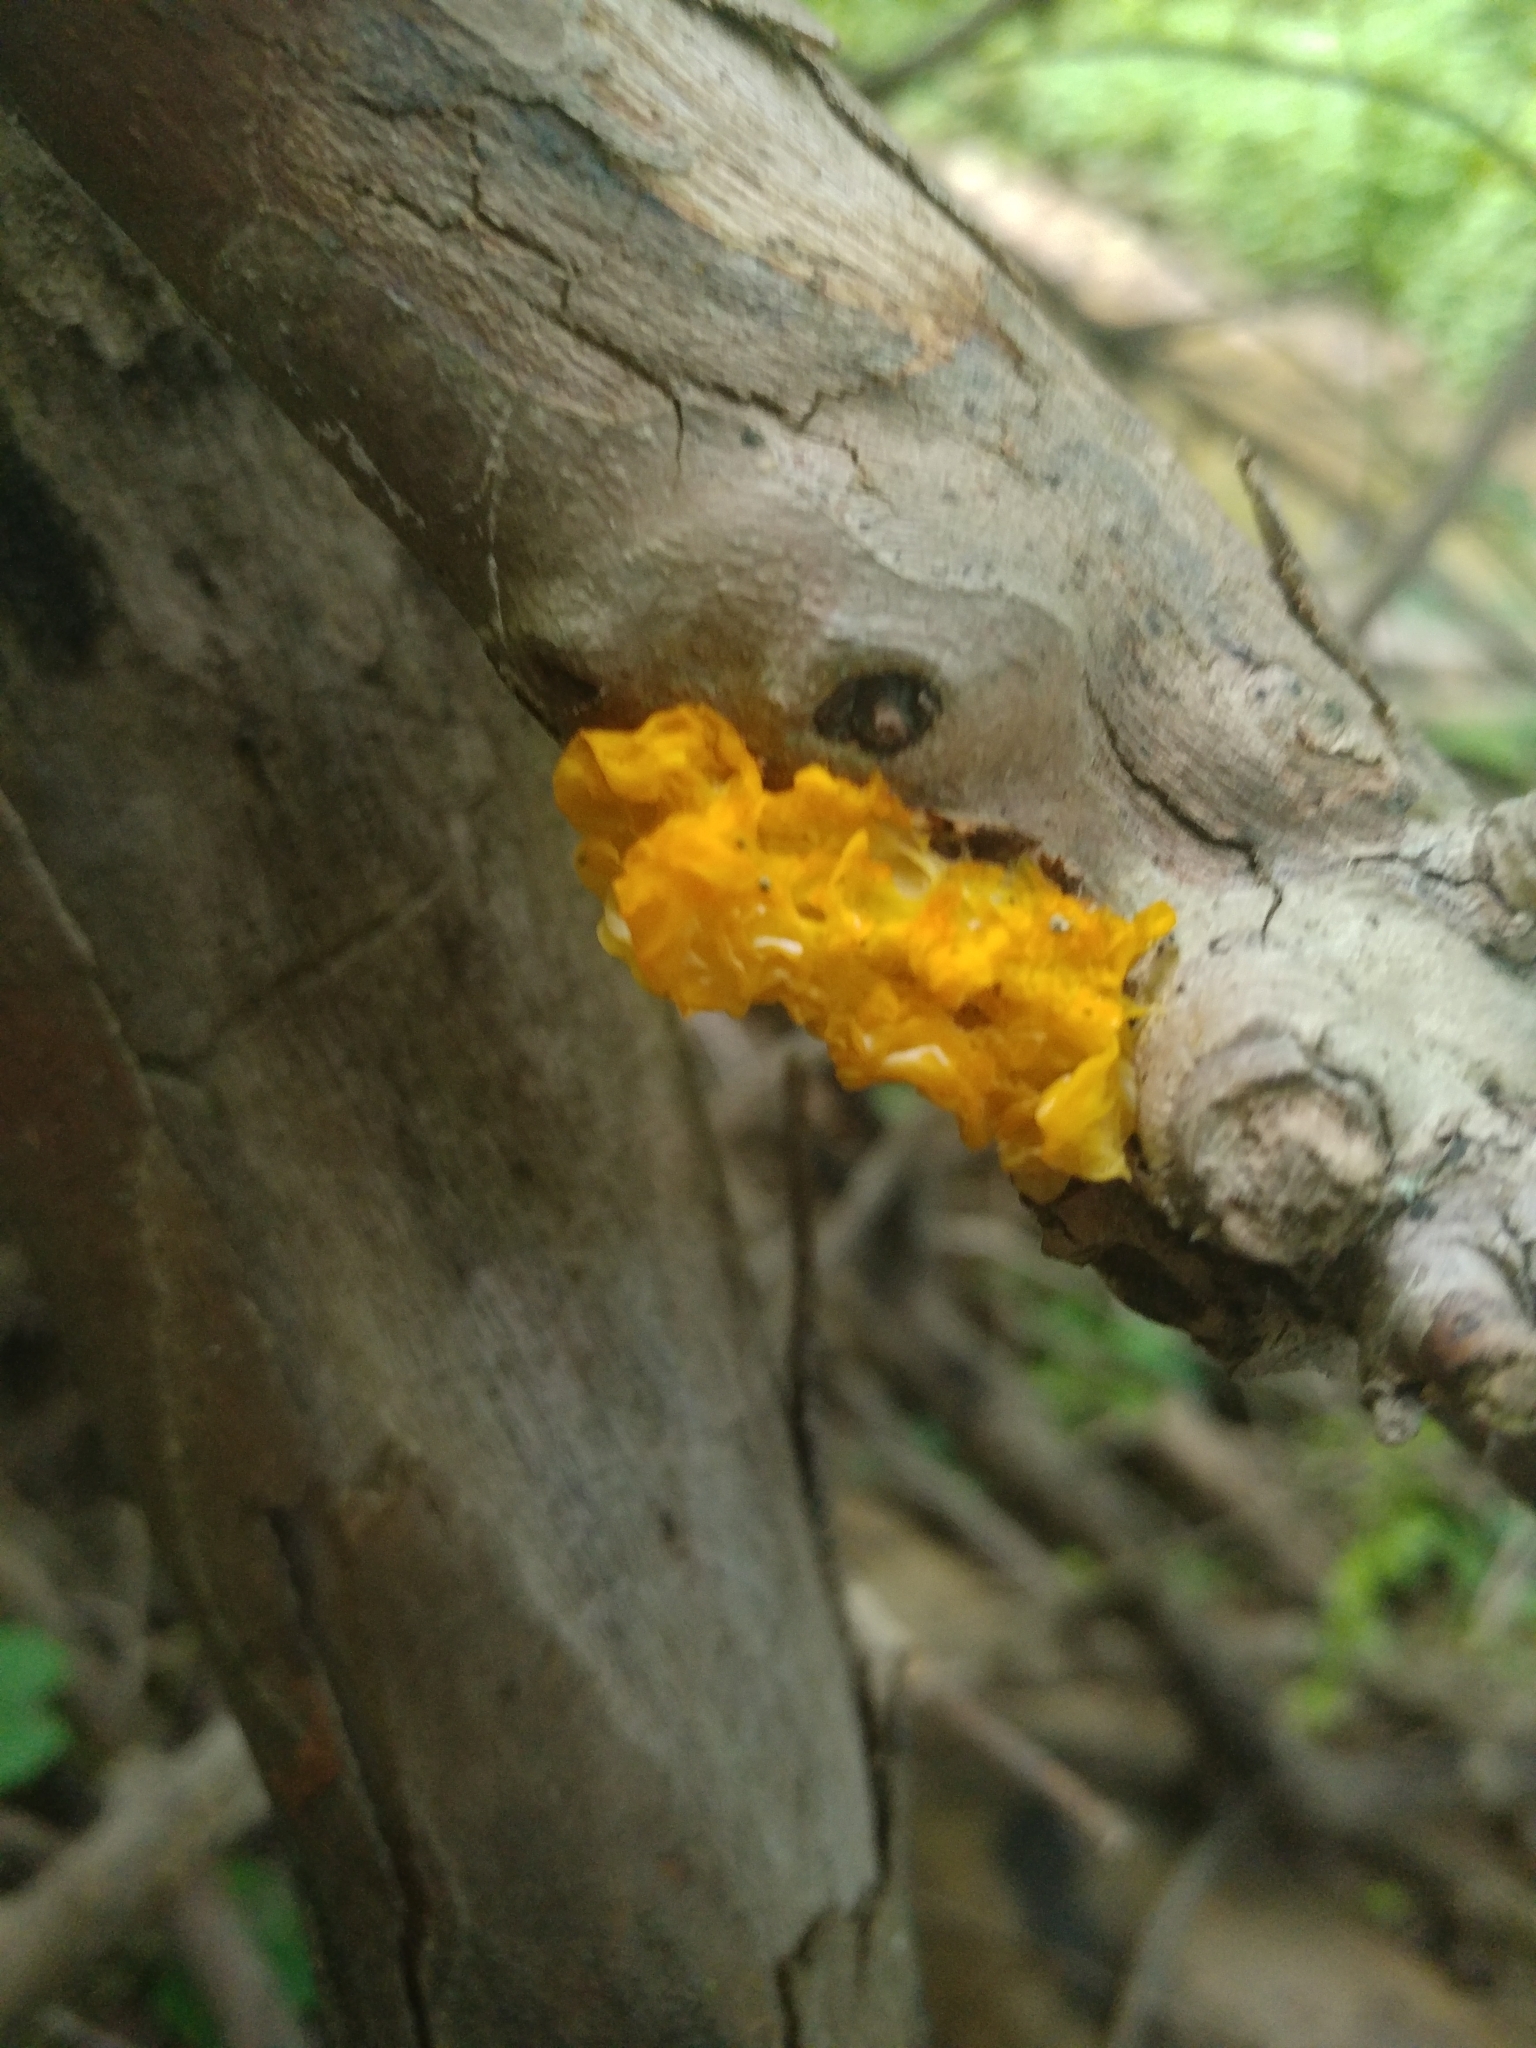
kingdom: Fungi
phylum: Basidiomycota
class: Tremellomycetes
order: Tremellales
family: Tremellaceae
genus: Tremella
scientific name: Tremella mesenterica
